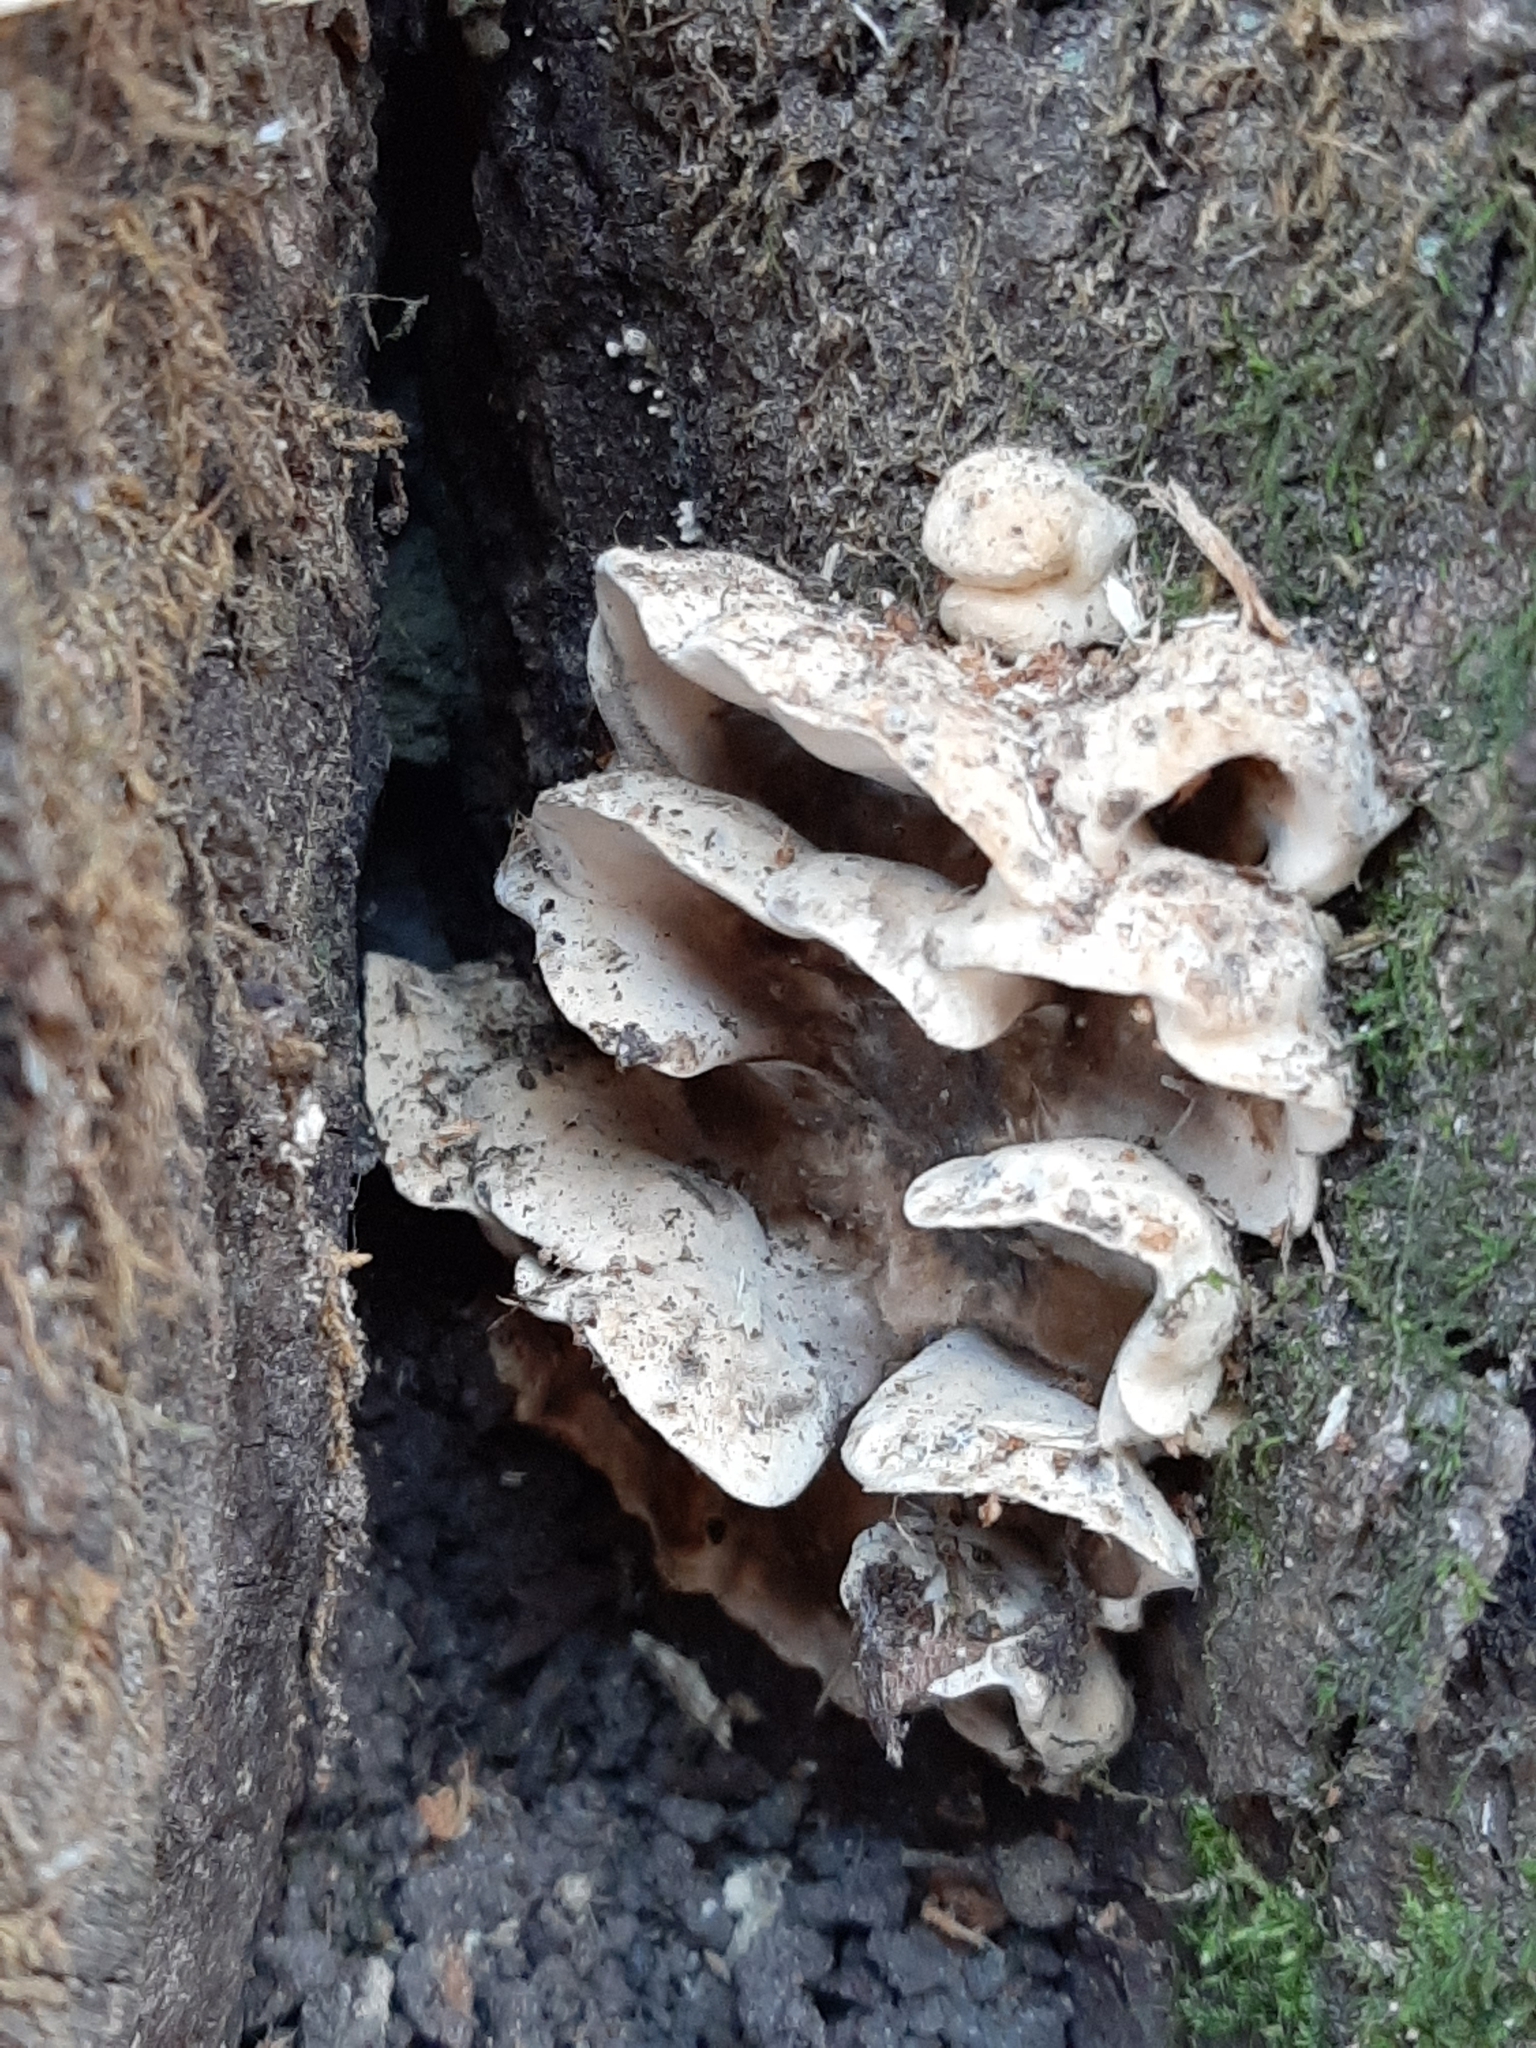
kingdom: Fungi
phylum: Basidiomycota
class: Agaricomycetes
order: Polyporales
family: Phanerochaetaceae
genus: Bjerkandera
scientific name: Bjerkandera adusta
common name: Smoky bracket
